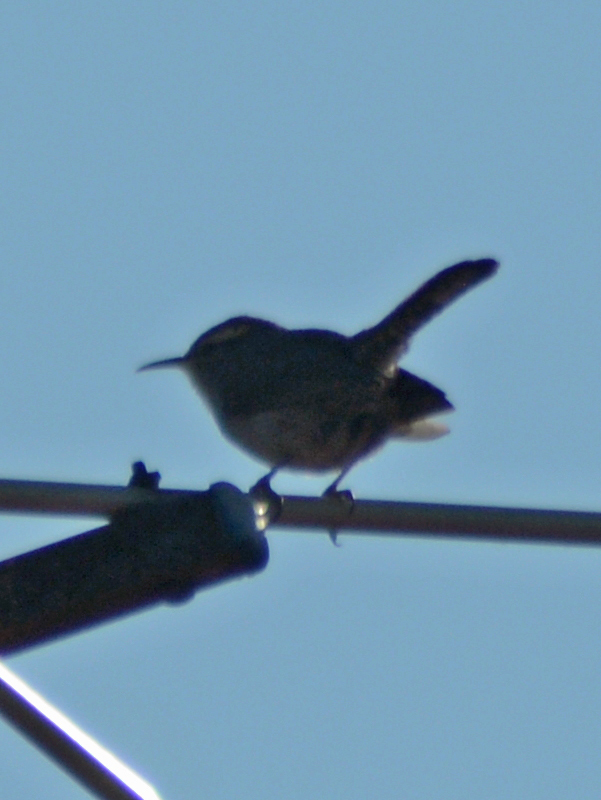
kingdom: Animalia
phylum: Chordata
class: Aves
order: Passeriformes
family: Troglodytidae
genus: Thryomanes
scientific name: Thryomanes bewickii
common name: Bewick's wren
